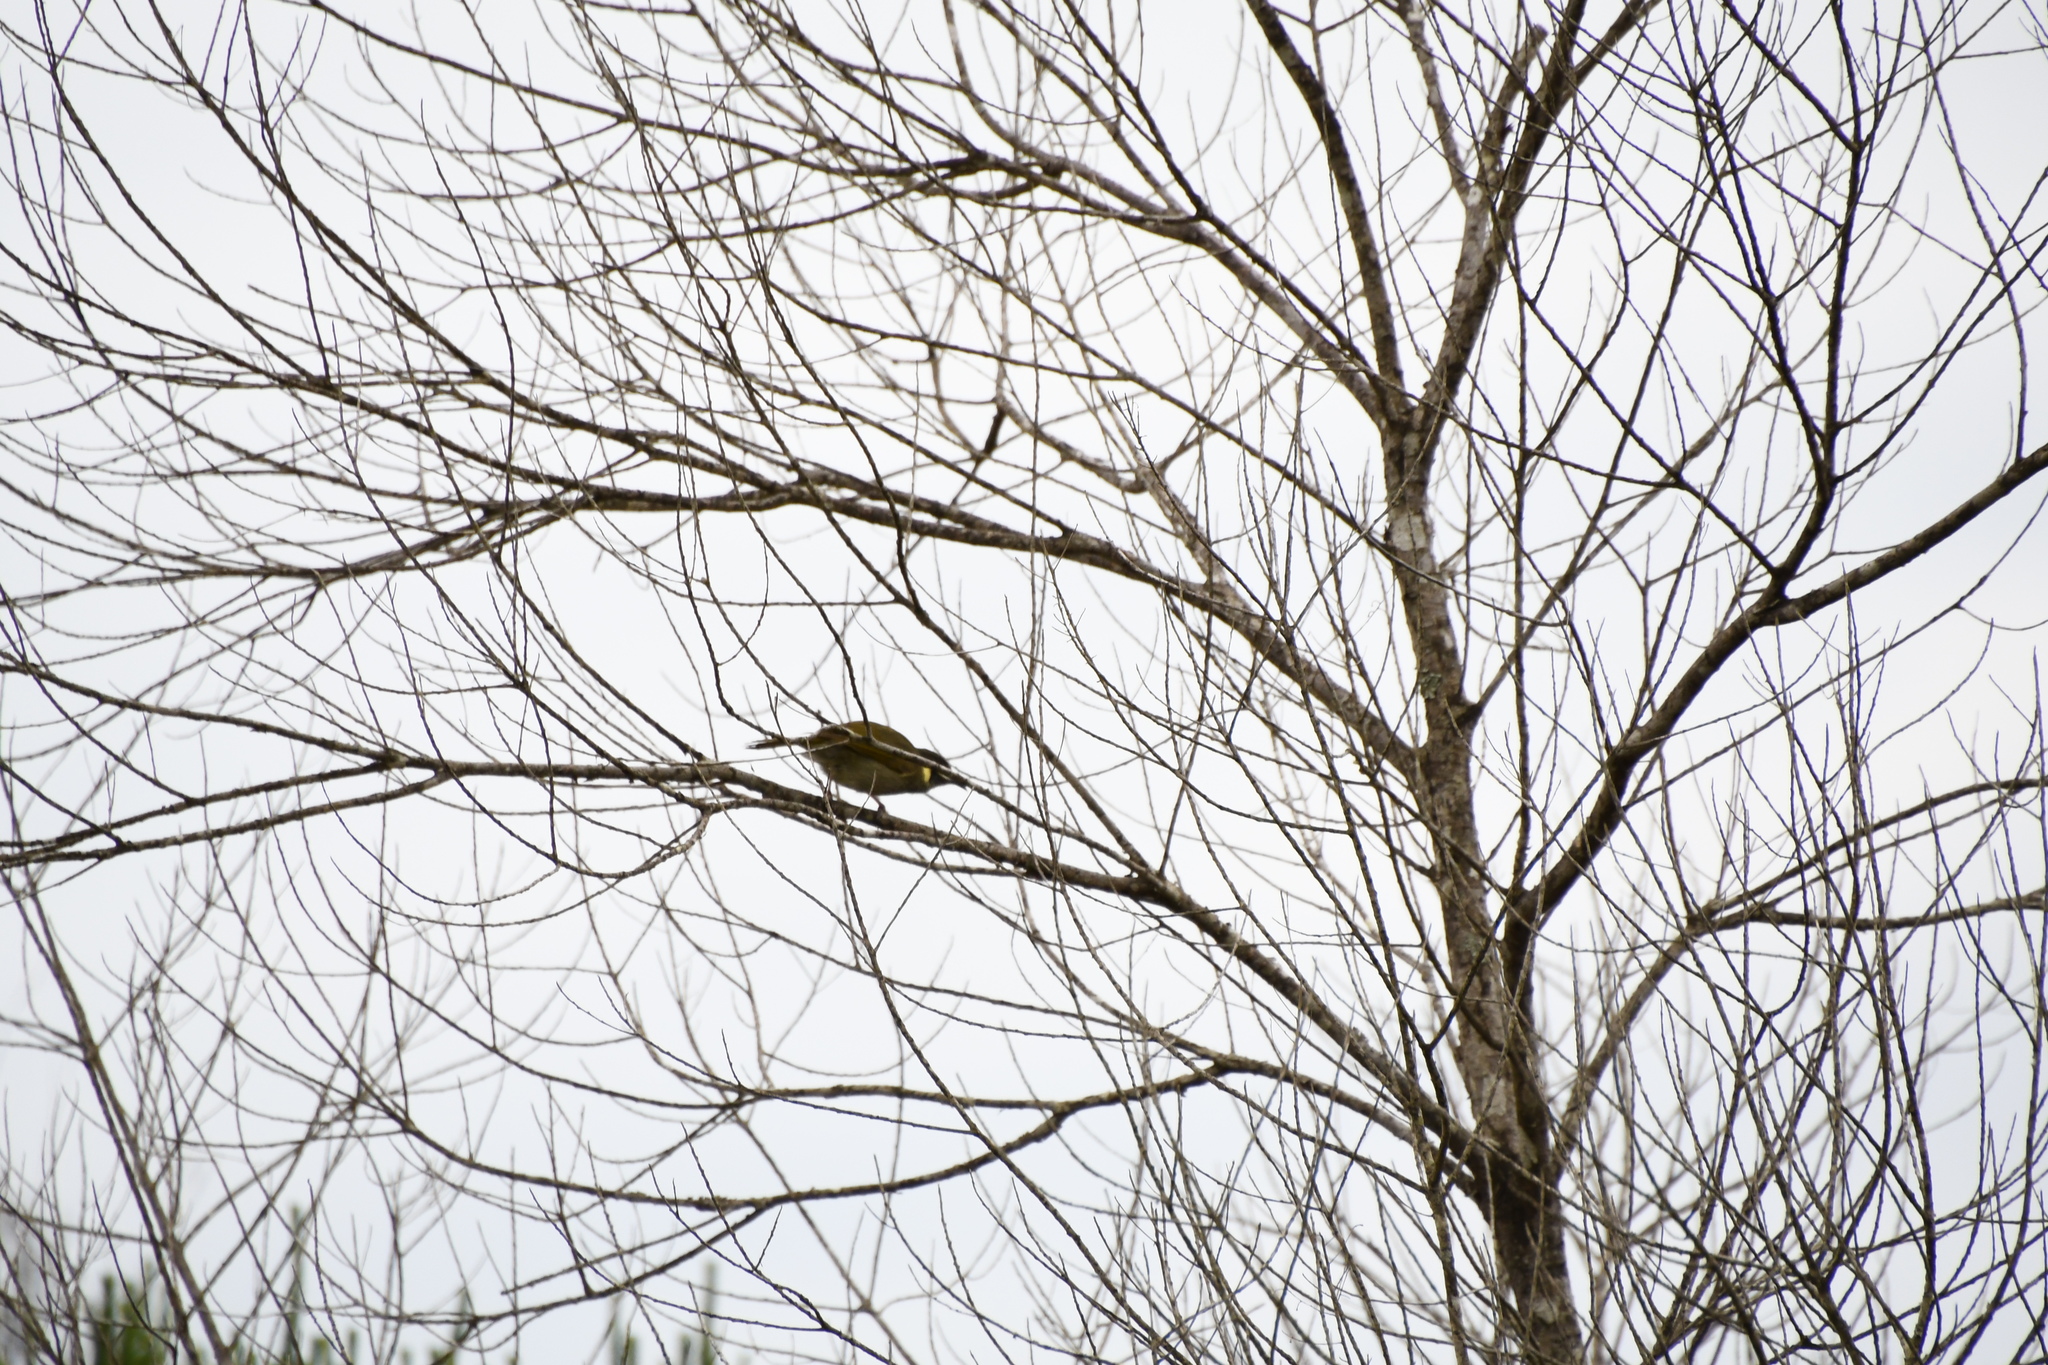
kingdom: Animalia
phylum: Chordata
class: Aves
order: Passeriformes
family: Meliphagidae
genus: Meliphaga
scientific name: Meliphaga lewinii
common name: Lewin's honeyeater
